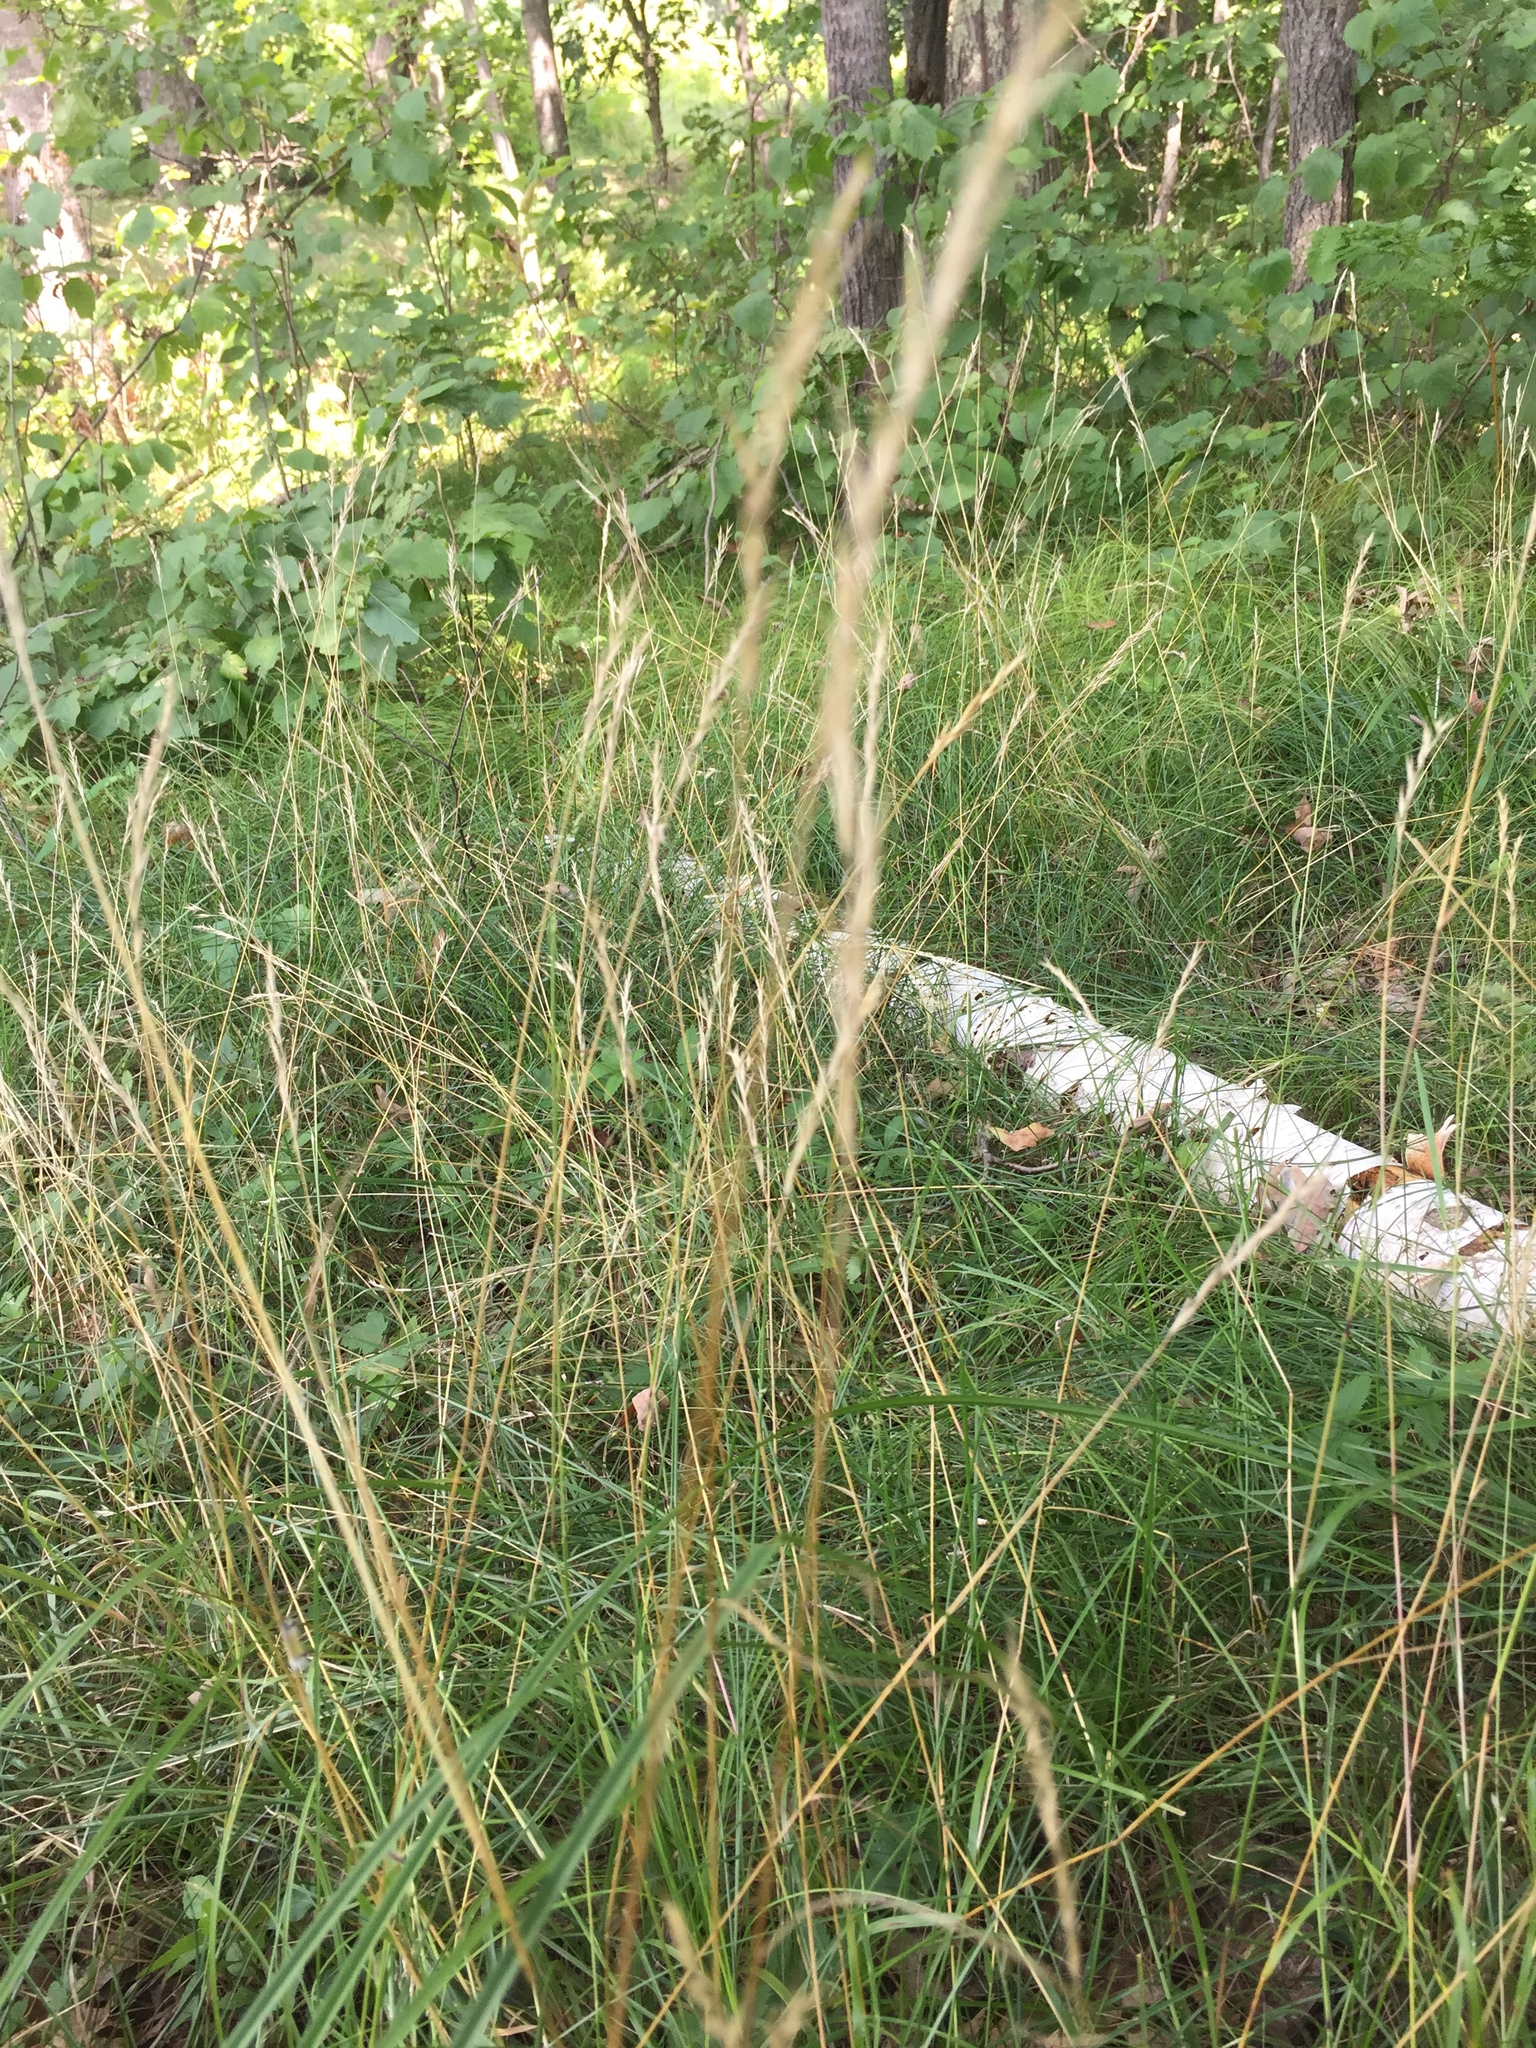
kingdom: Plantae
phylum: Tracheophyta
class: Liliopsida
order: Poales
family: Poaceae
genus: Danthonia
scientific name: Danthonia spicata
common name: Common wild oatgrass
